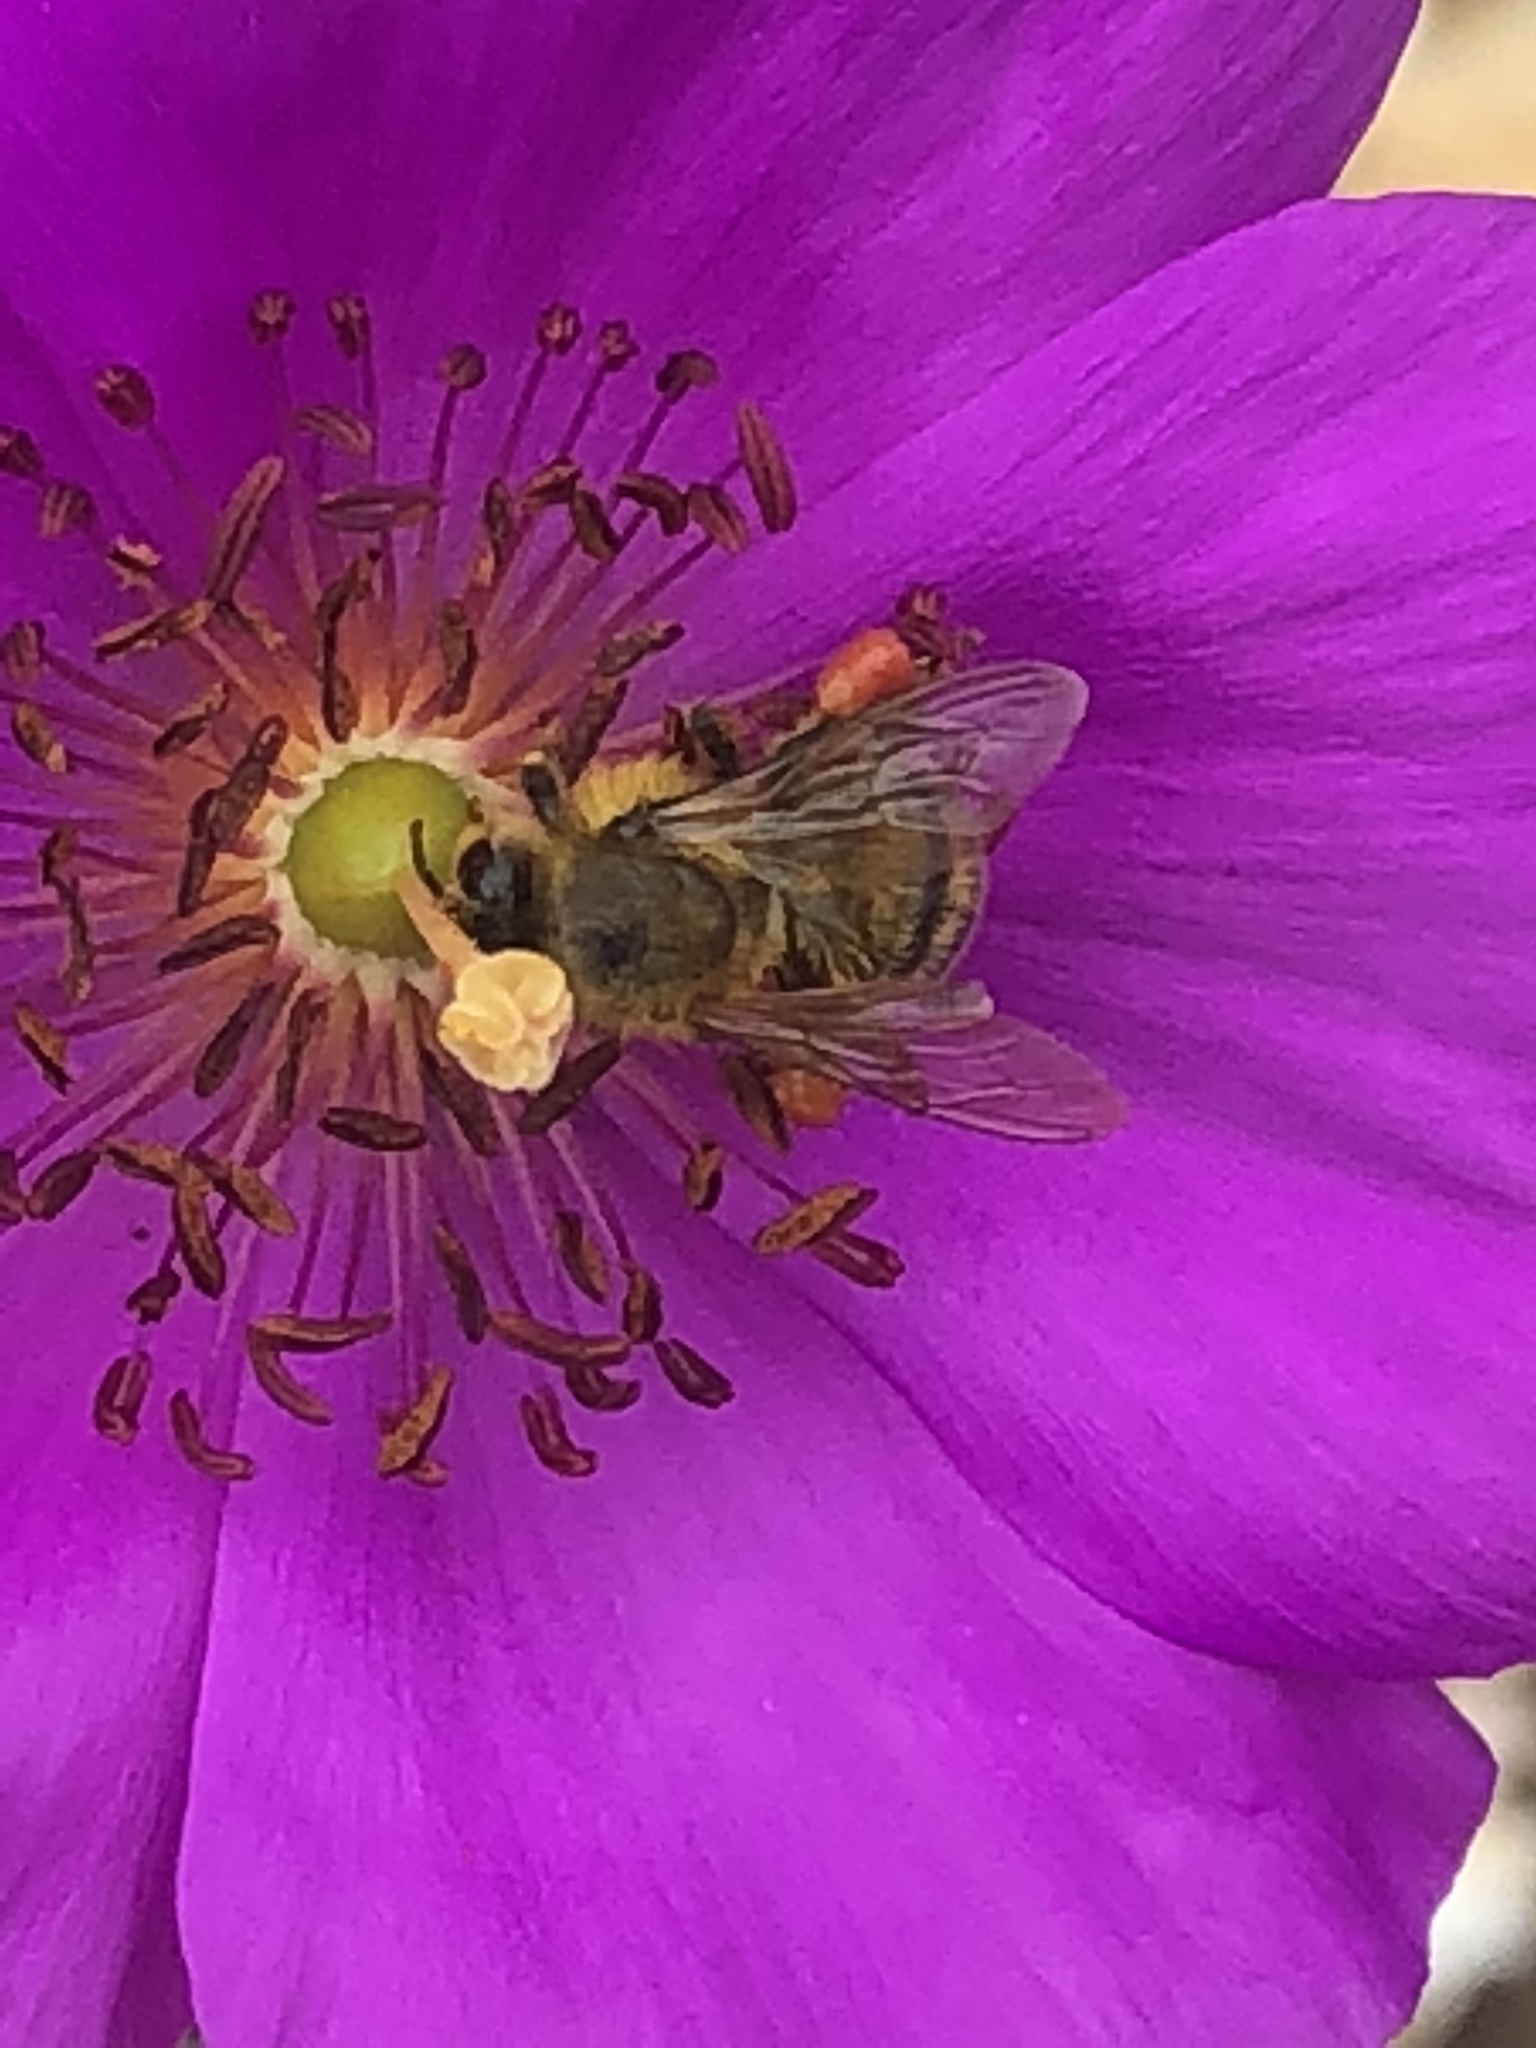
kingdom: Animalia
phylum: Arthropoda
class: Insecta
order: Hymenoptera
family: Apidae
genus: Apis
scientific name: Apis mellifera
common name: Honey bee
